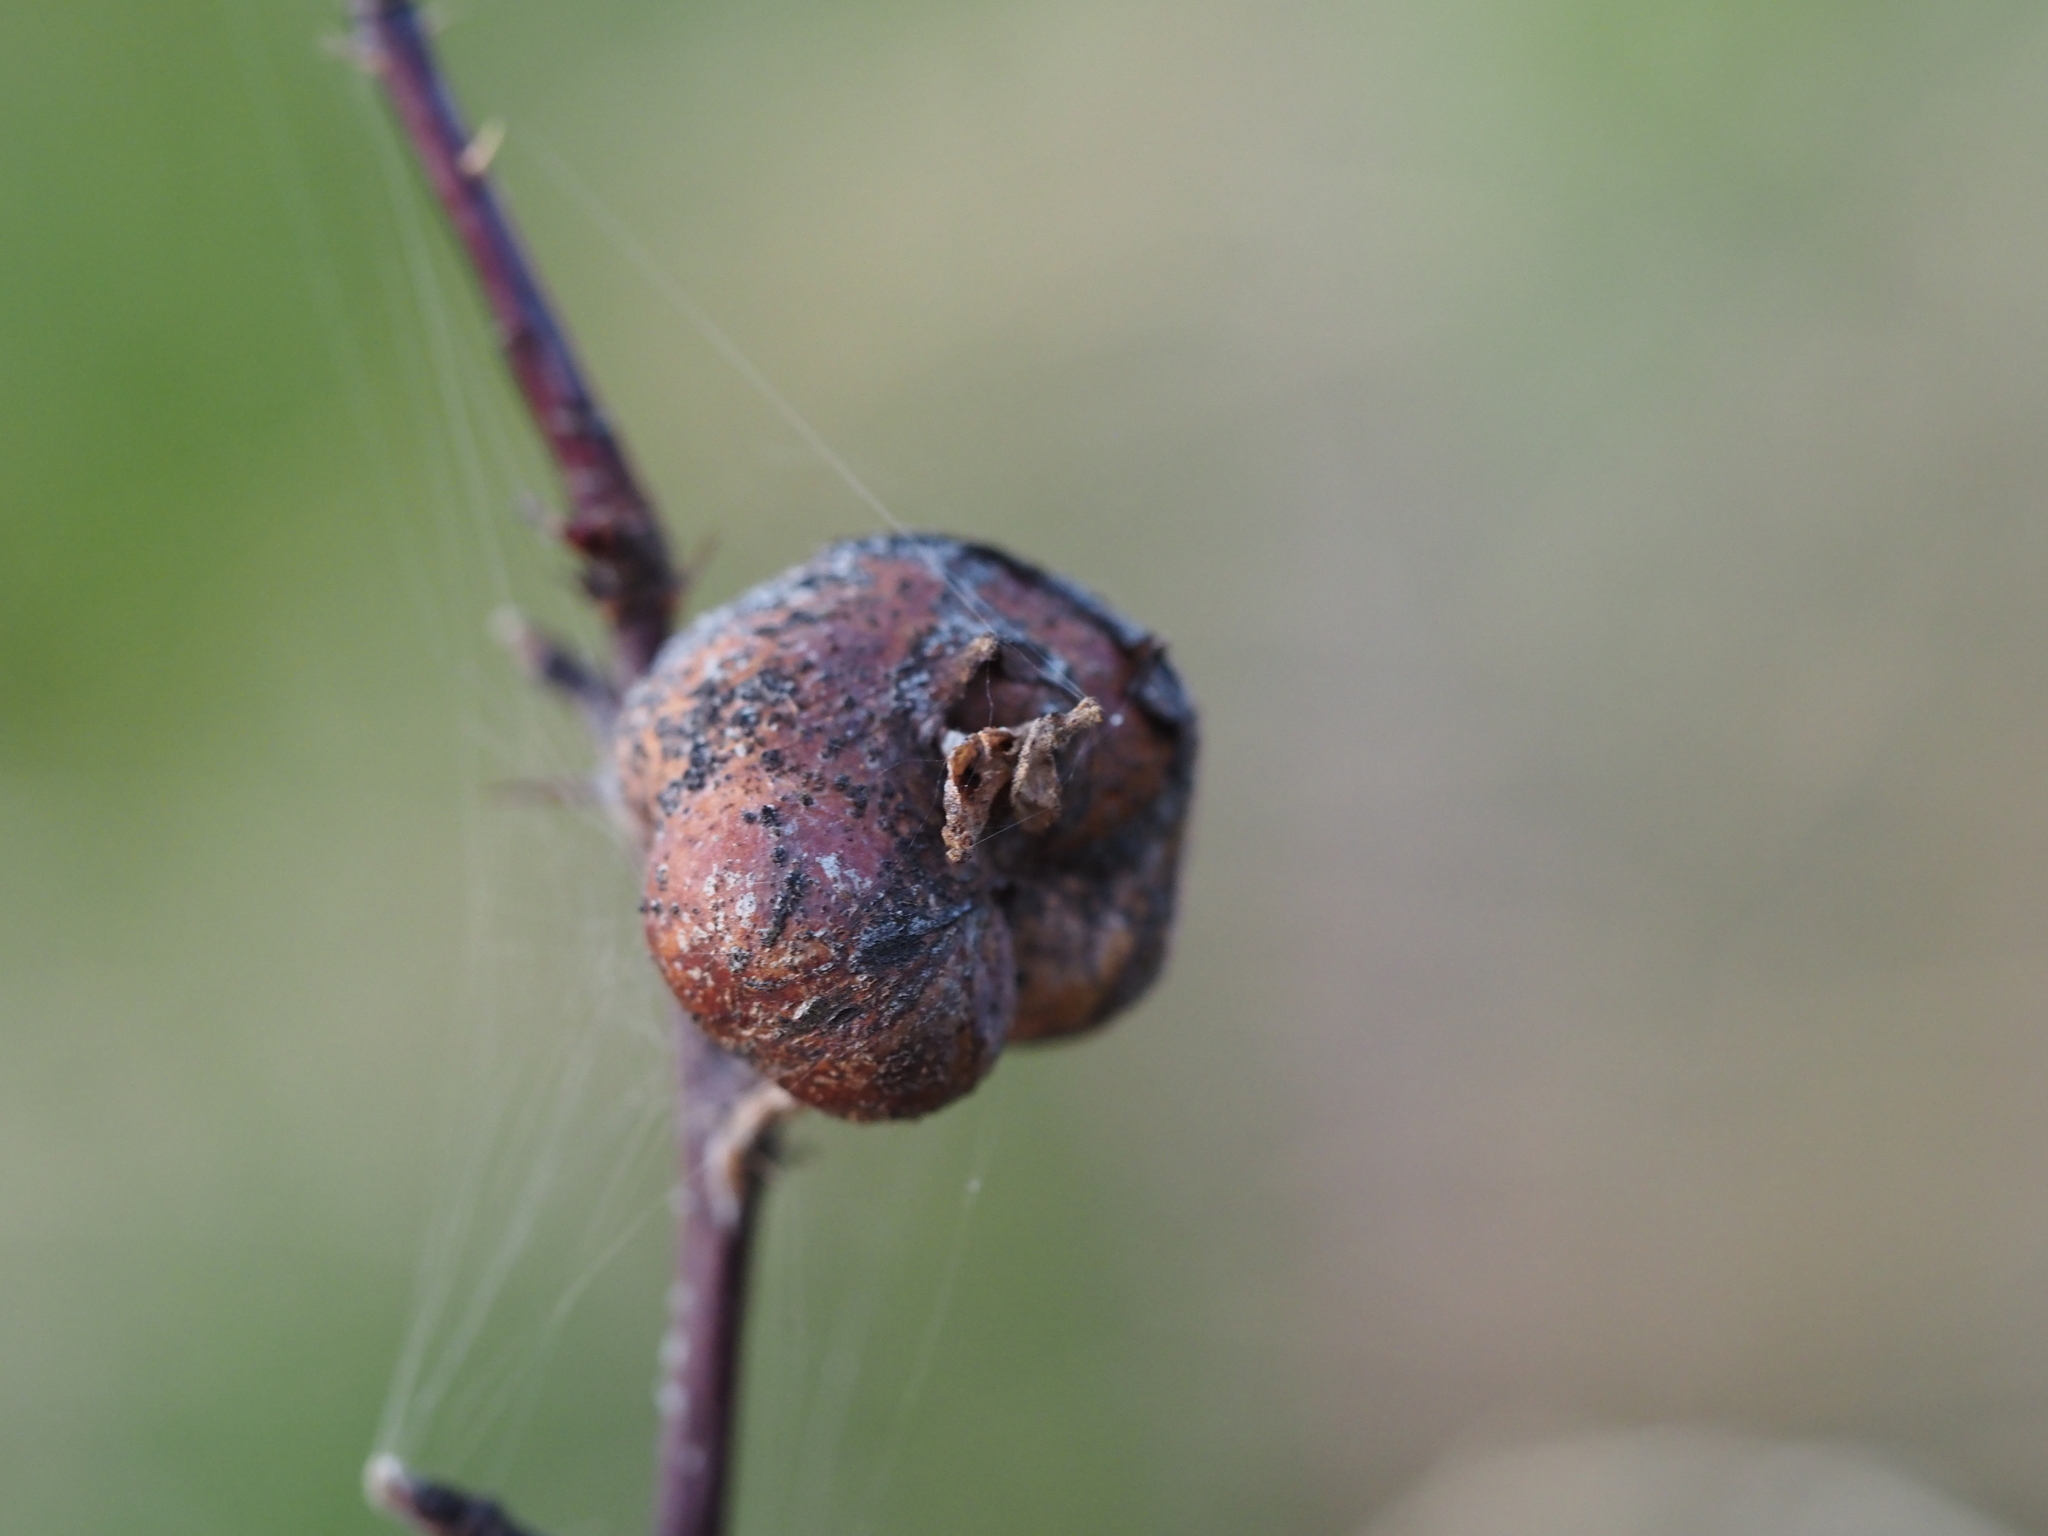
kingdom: Animalia
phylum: Arthropoda
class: Insecta
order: Hymenoptera
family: Cynipidae
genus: Diplolepis
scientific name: Diplolepis spinosa
